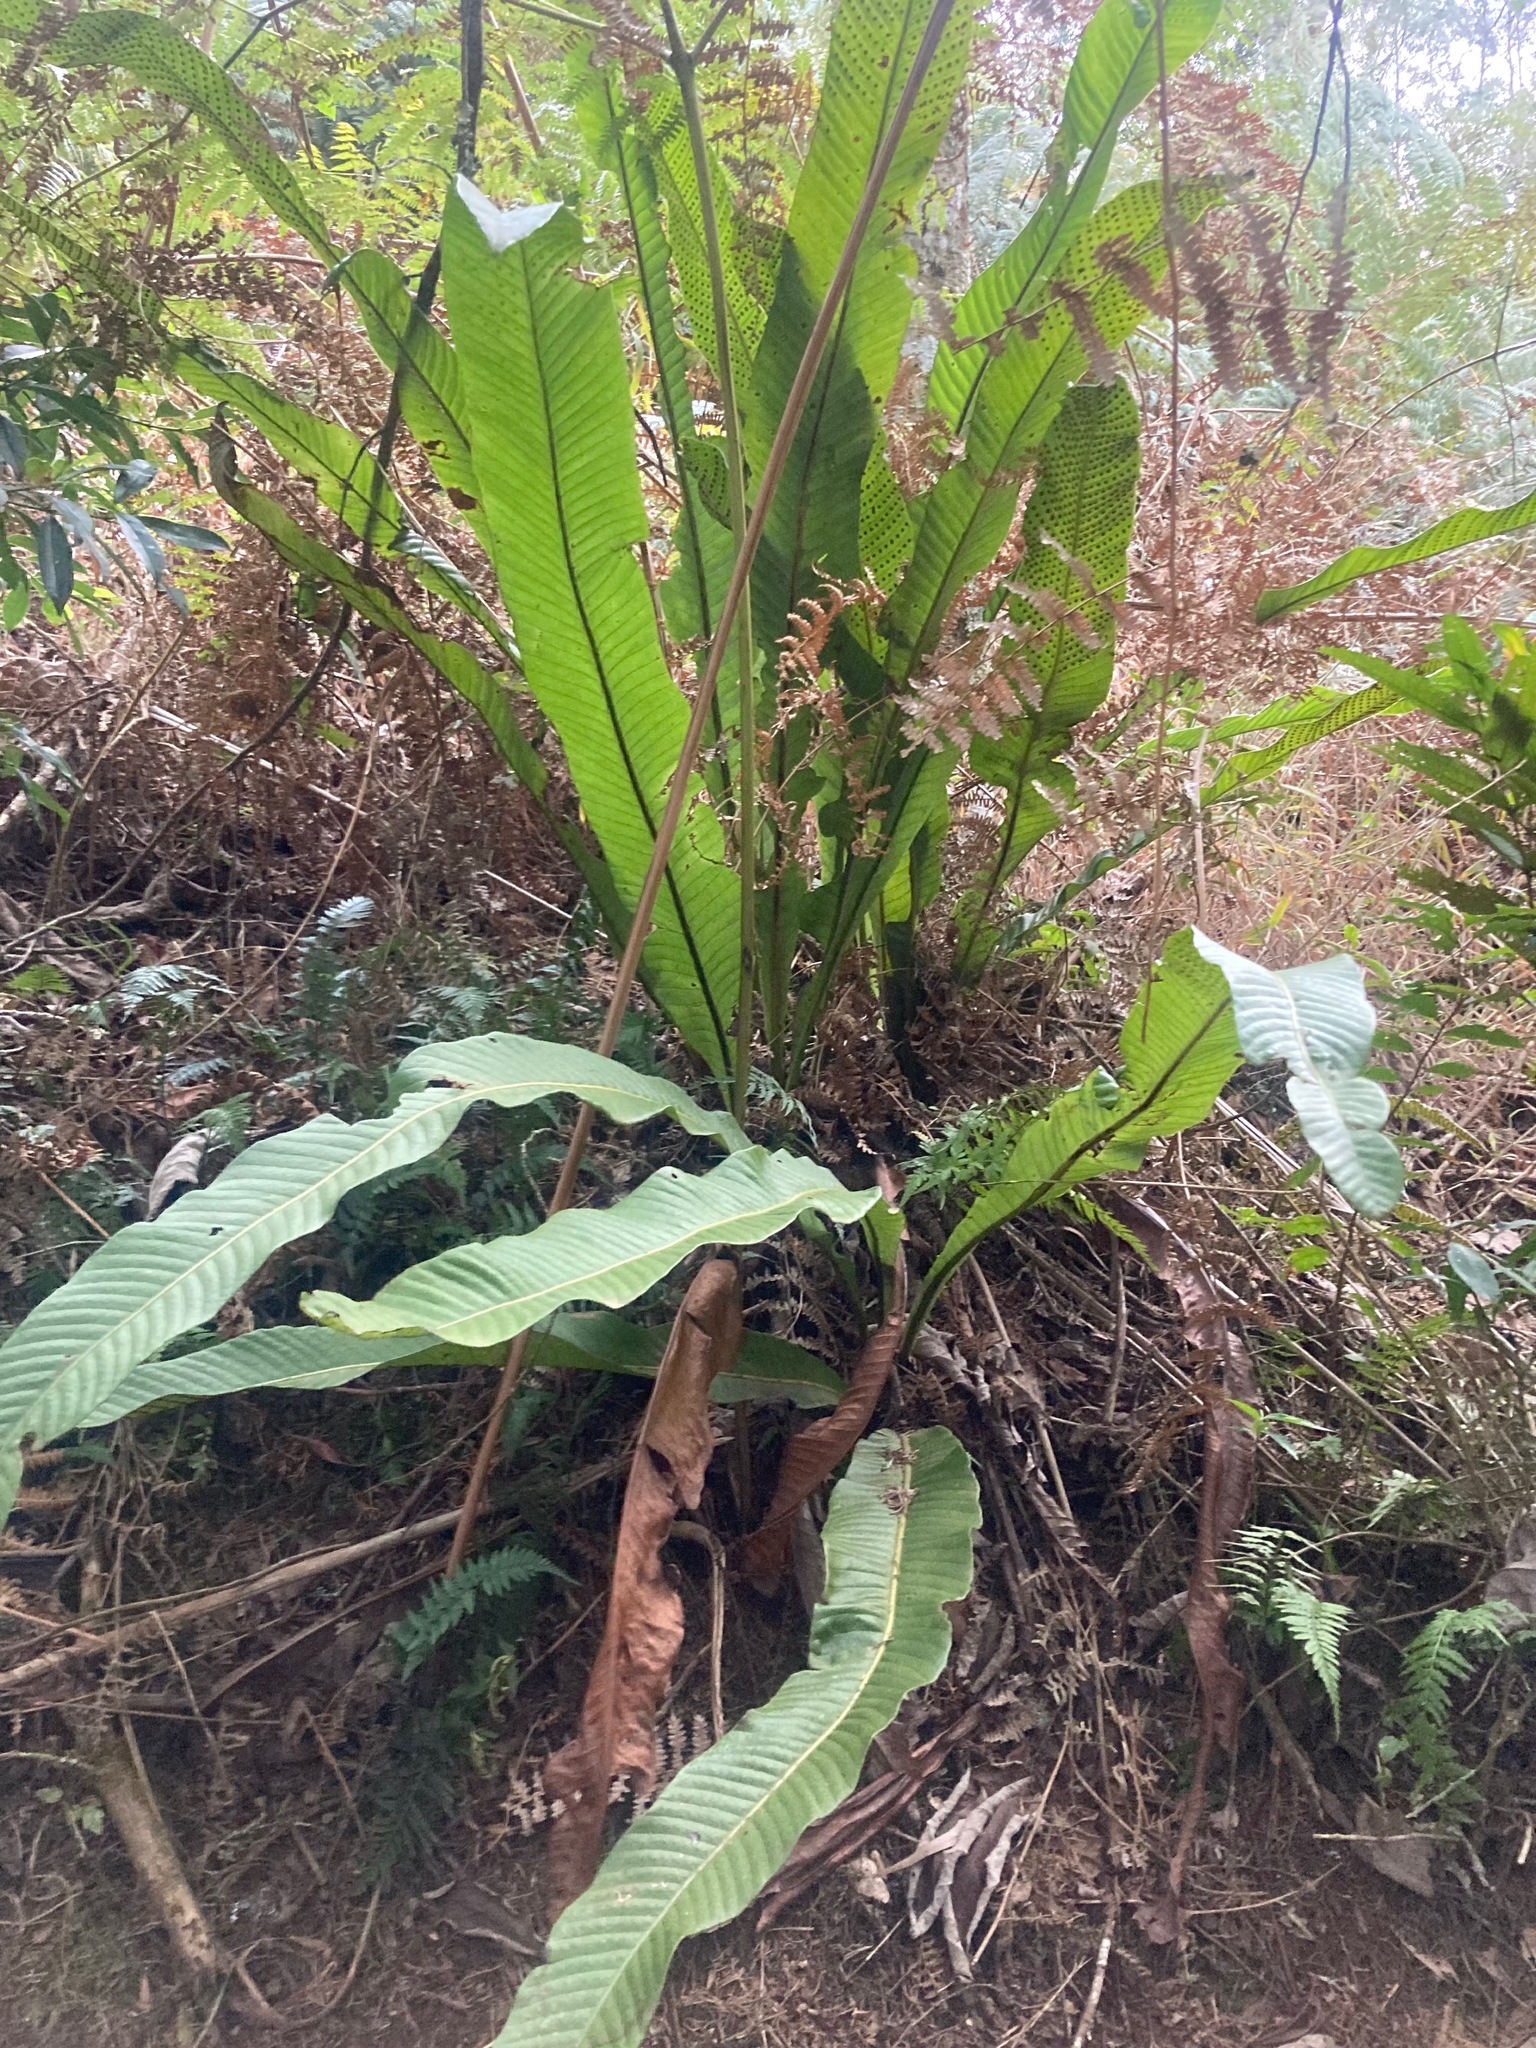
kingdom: Plantae
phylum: Tracheophyta
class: Polypodiopsida
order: Polypodiales
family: Polypodiaceae
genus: Niphidium
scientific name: Niphidium crassifolium
